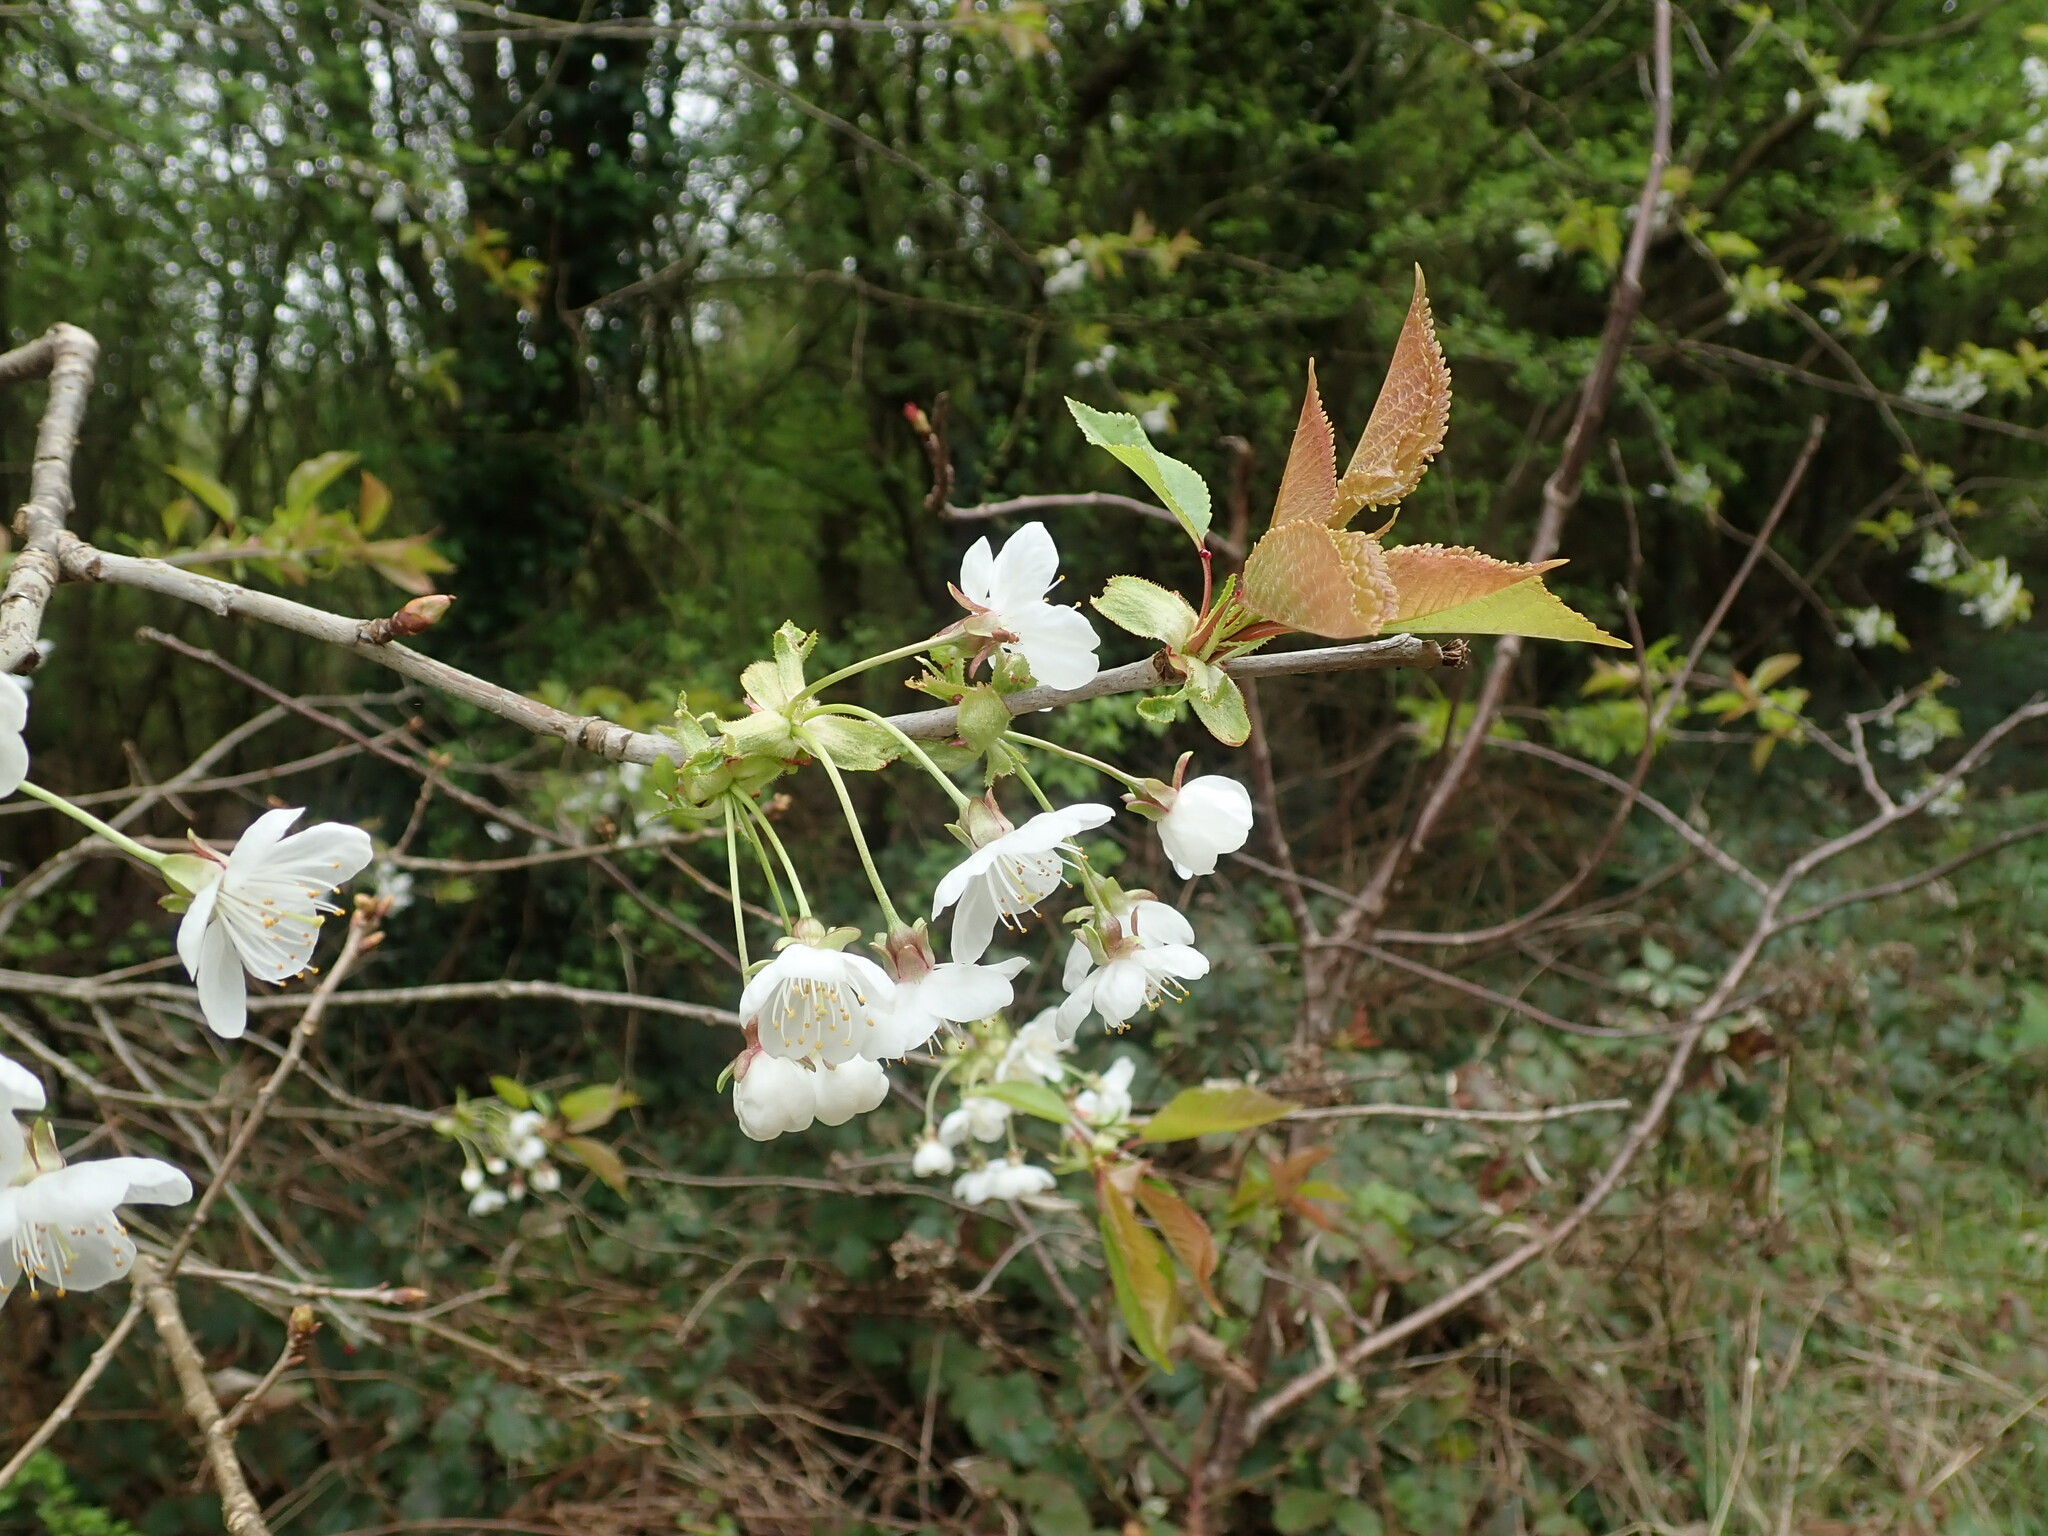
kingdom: Plantae
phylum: Tracheophyta
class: Magnoliopsida
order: Rosales
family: Rosaceae
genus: Prunus
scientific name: Prunus avium
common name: Sweet cherry
